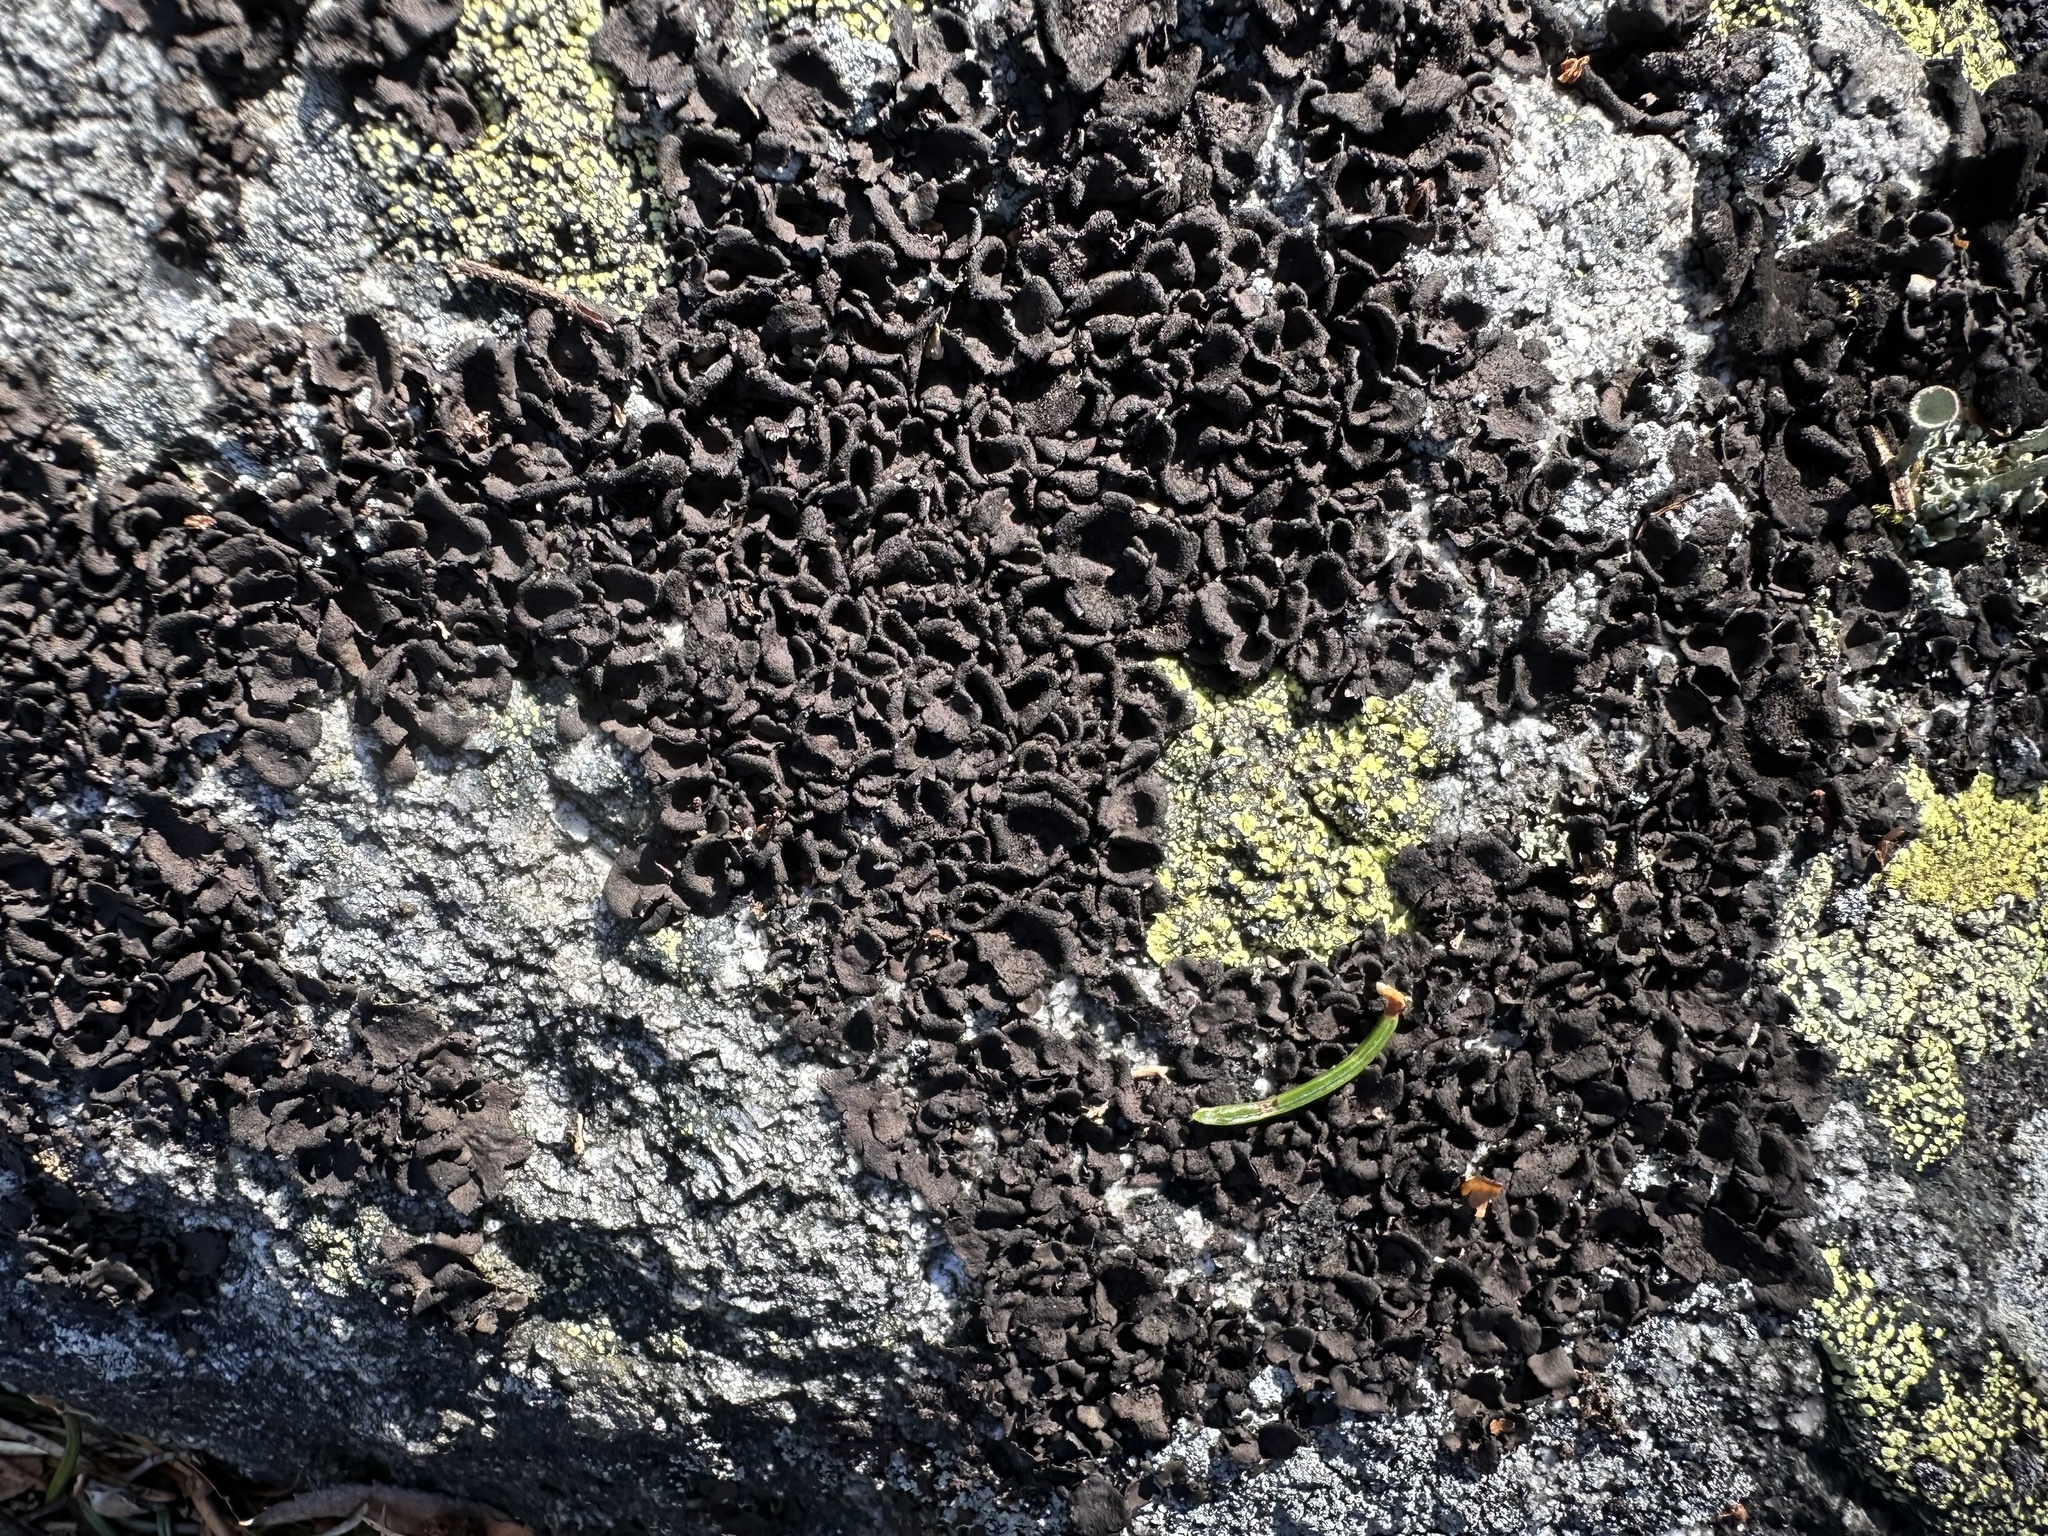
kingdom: Fungi
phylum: Ascomycota
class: Lecanoromycetes
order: Umbilicariales
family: Umbilicariaceae
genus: Umbilicaria
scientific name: Umbilicaria deusta
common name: Peppered rock tripe
